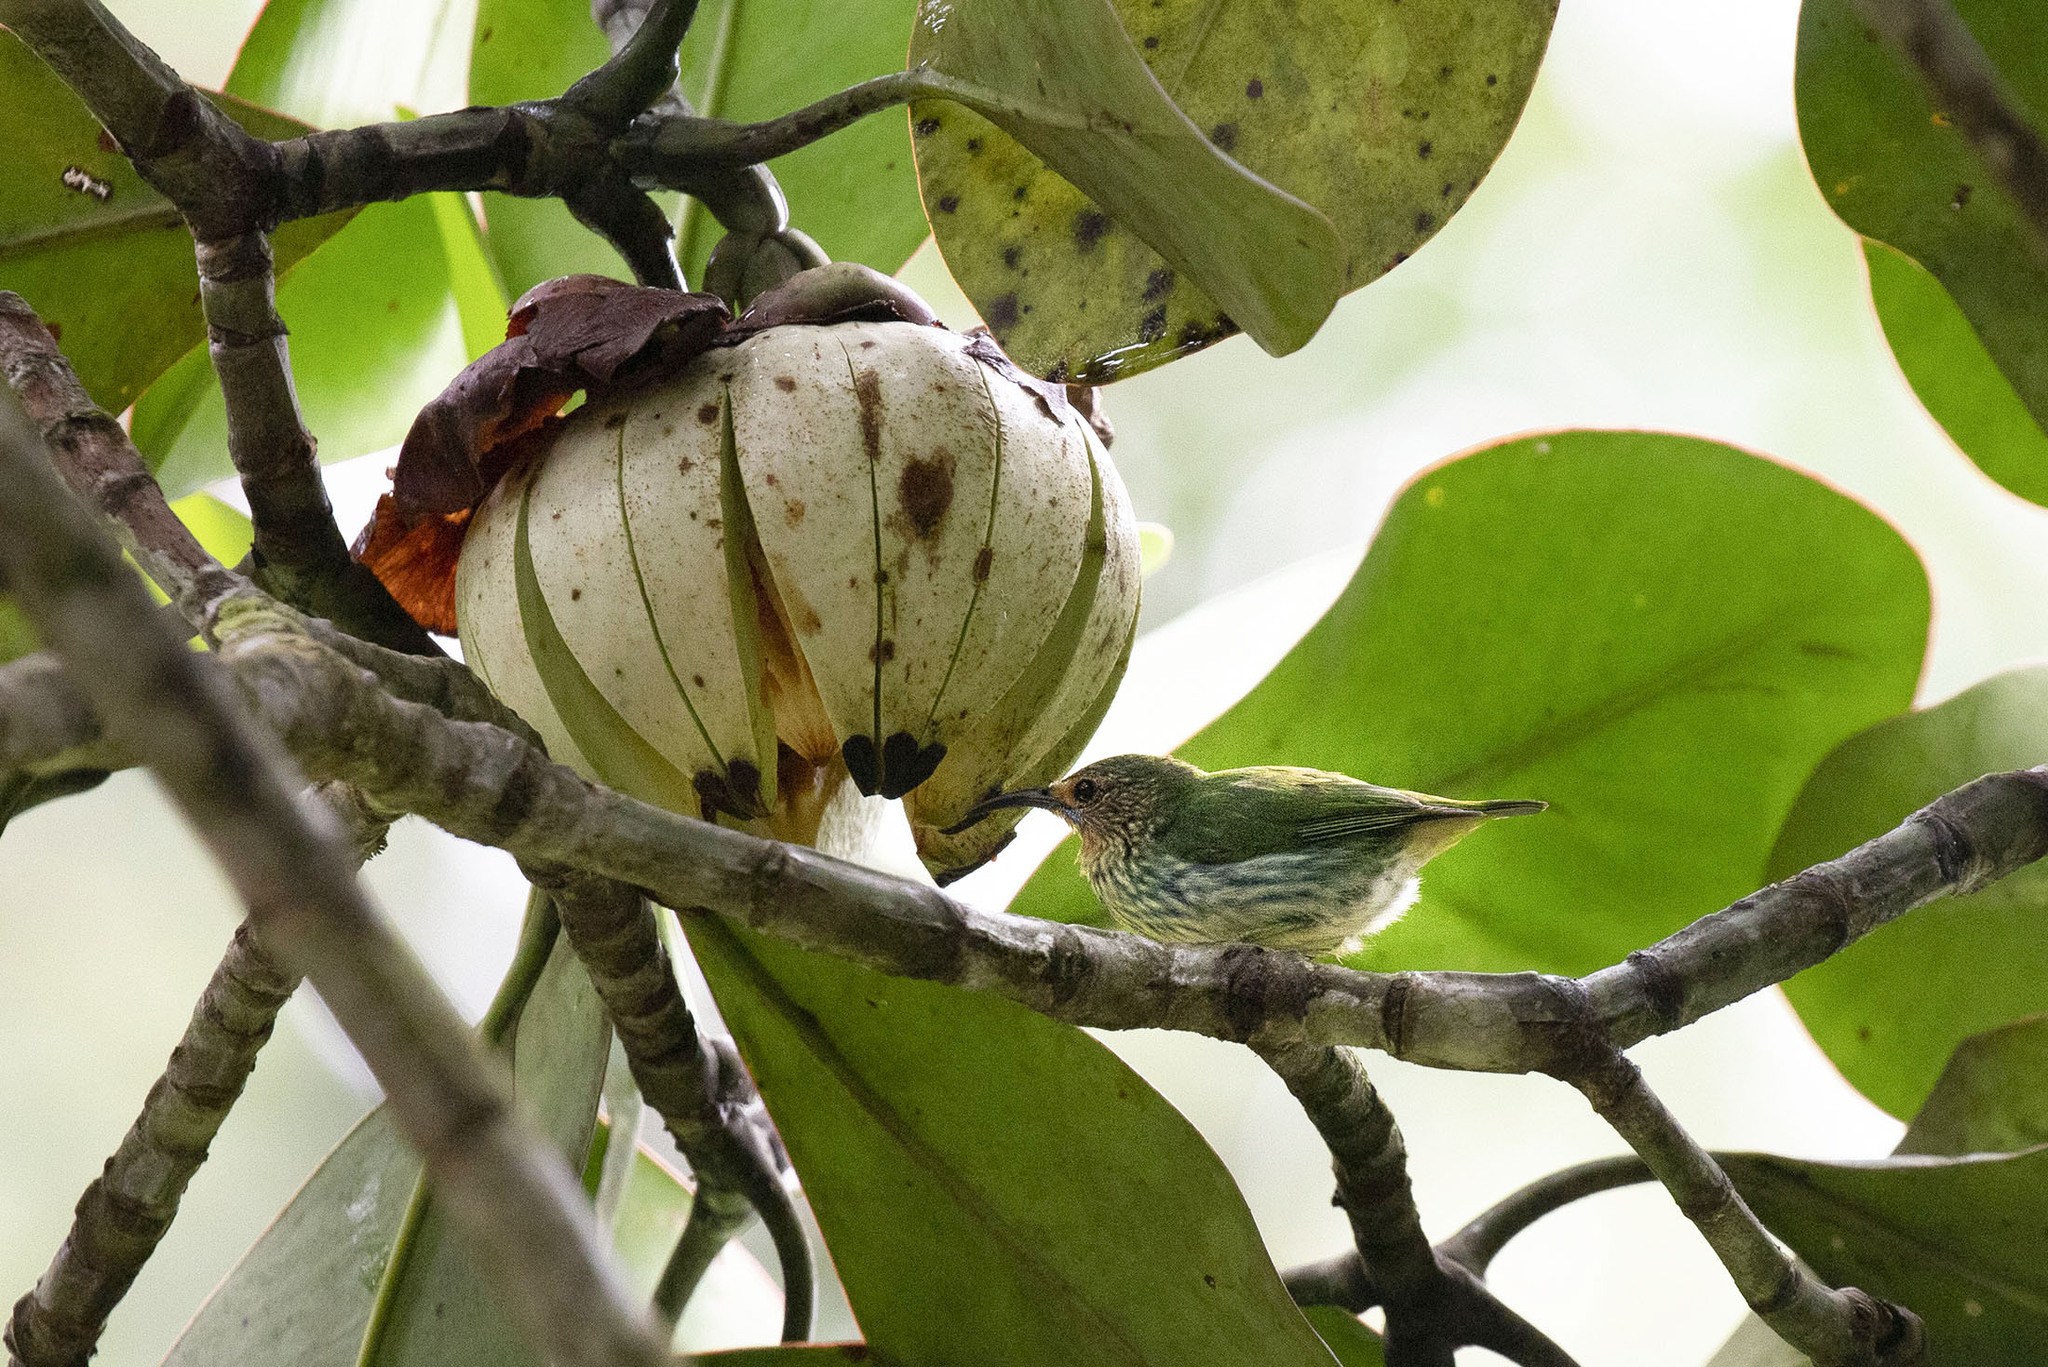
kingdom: Plantae
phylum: Tracheophyta
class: Magnoliopsida
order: Malpighiales
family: Clusiaceae
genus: Clusia
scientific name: Clusia grandiflora
